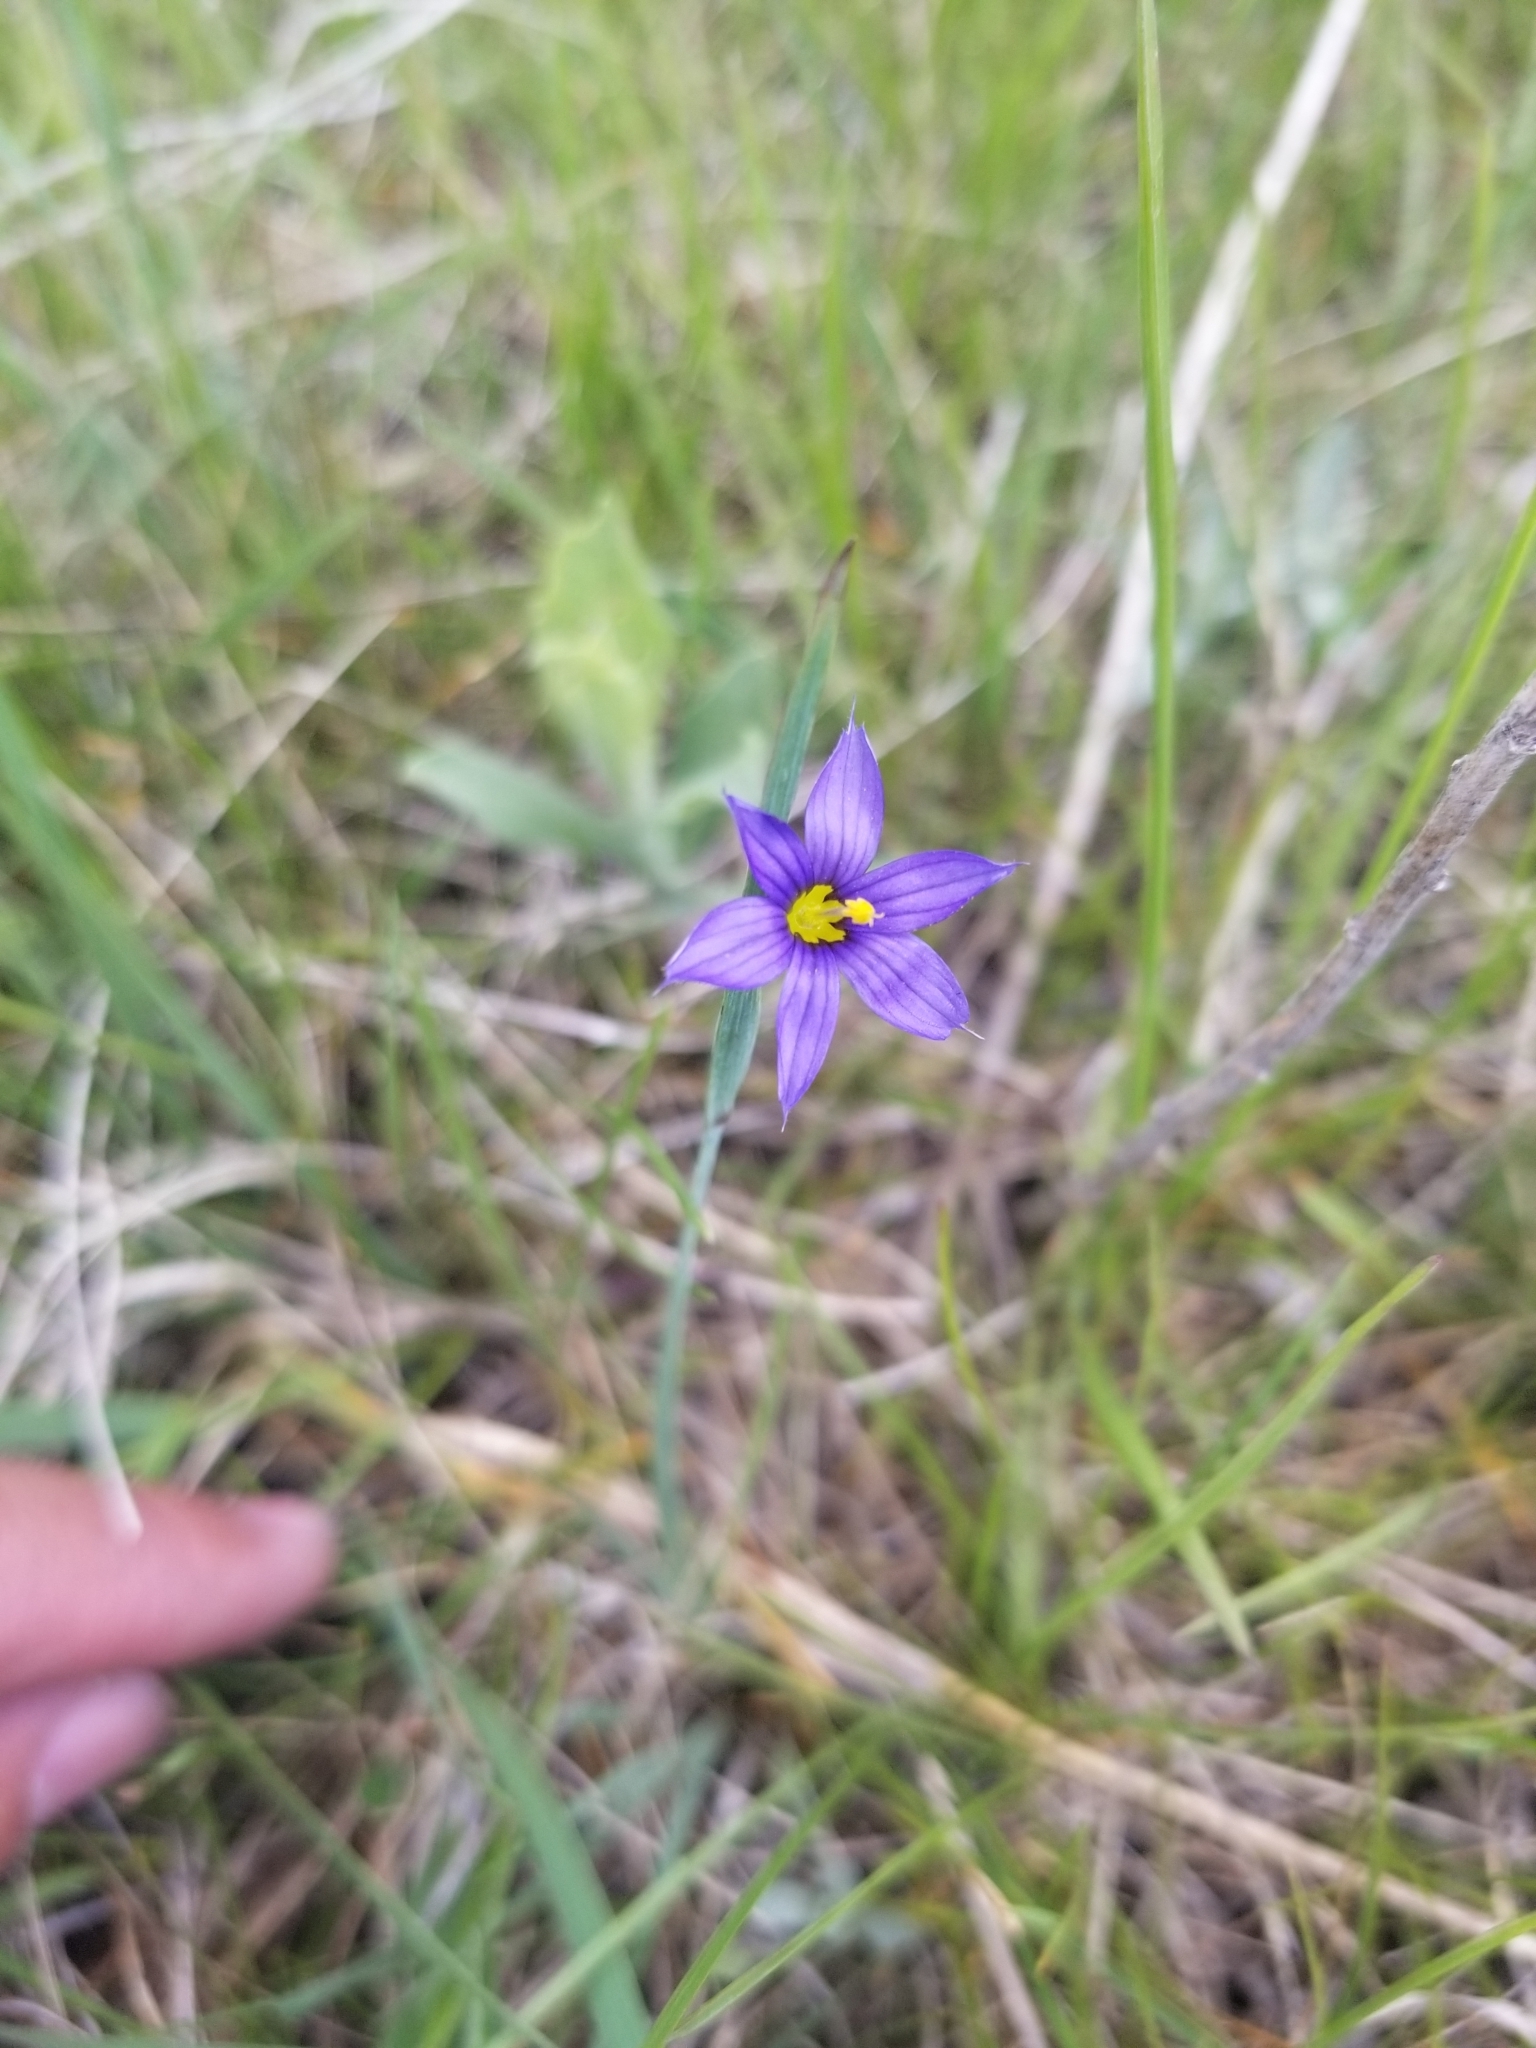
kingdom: Plantae
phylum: Tracheophyta
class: Liliopsida
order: Asparagales
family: Iridaceae
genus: Sisyrinchium
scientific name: Sisyrinchium montanum
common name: American blue-eyed-grass
